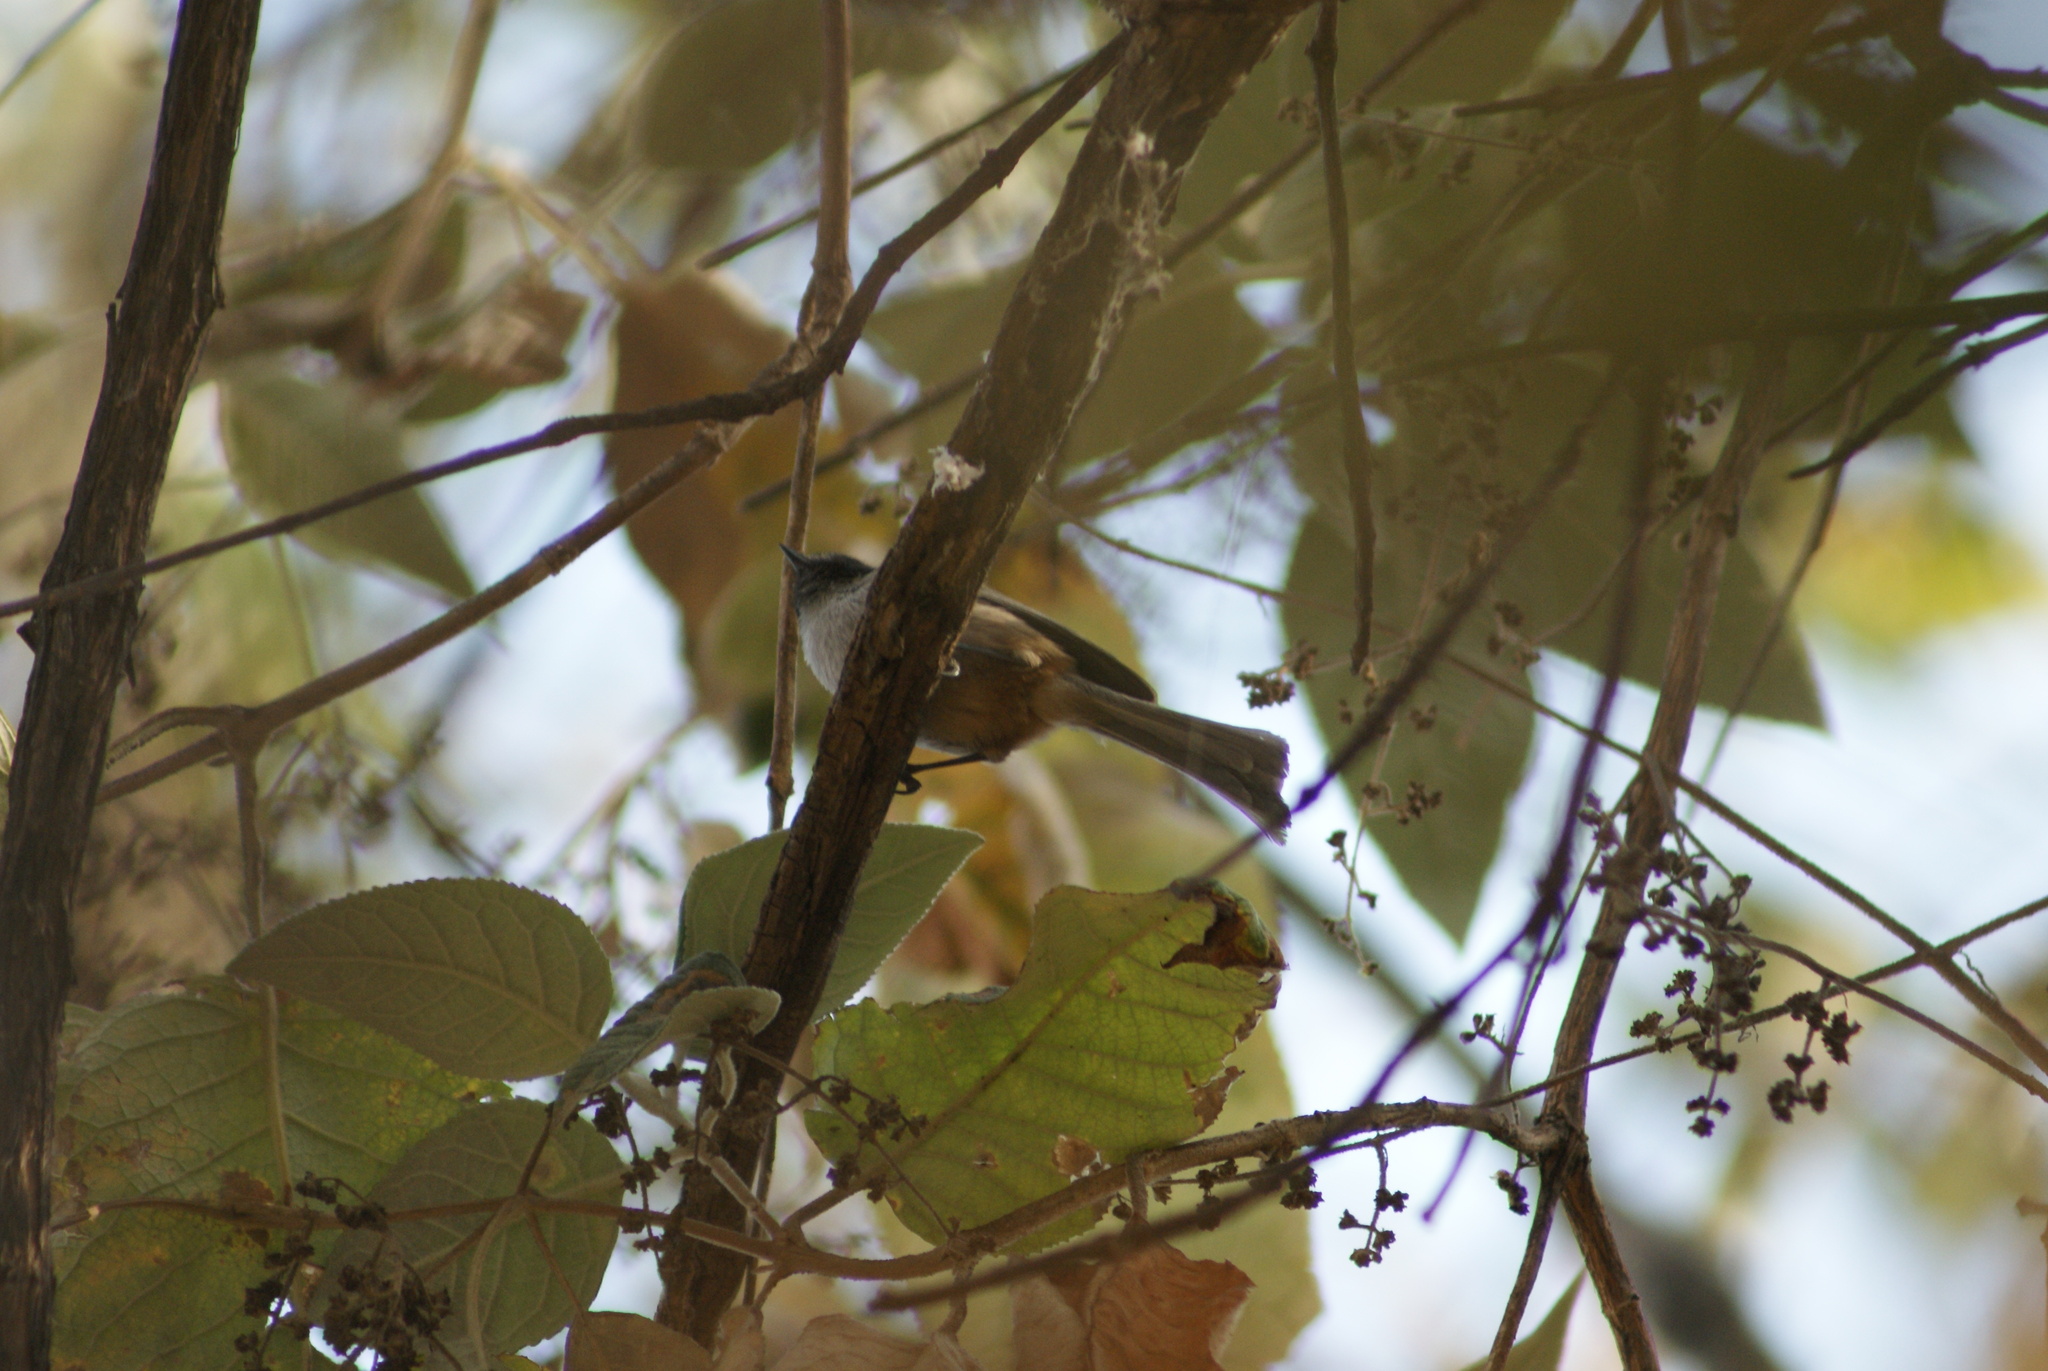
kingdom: Animalia
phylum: Chordata
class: Aves
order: Passeriformes
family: Aegithalidae
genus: Psaltriparus
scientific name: Psaltriparus minimus
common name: American bushtit
